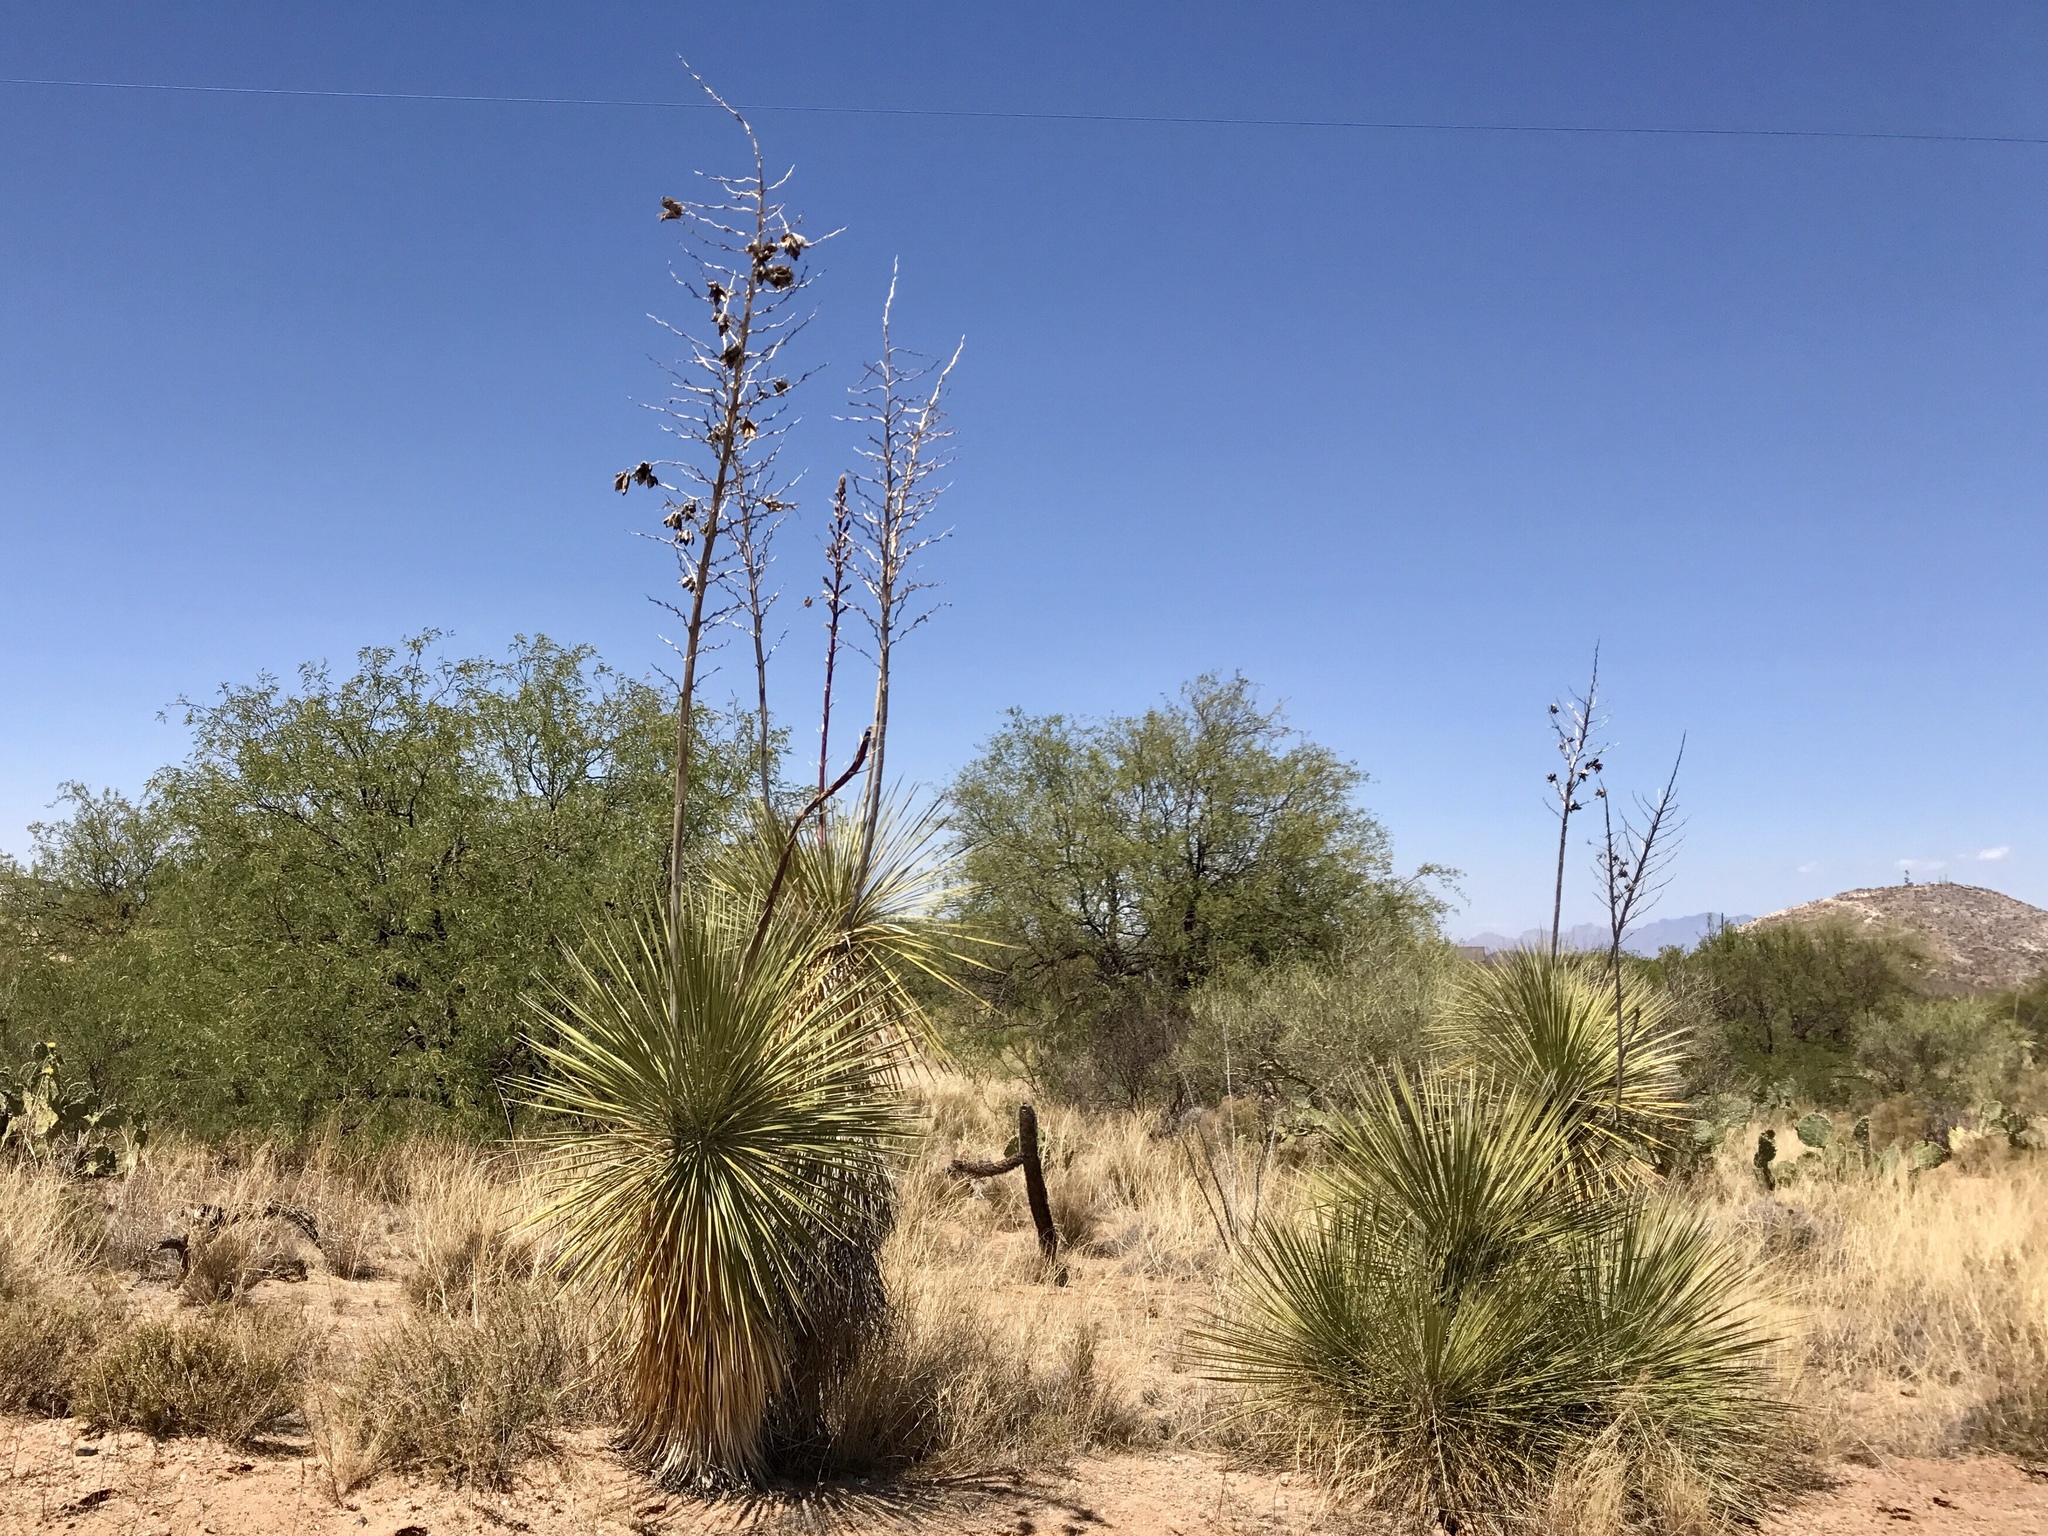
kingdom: Plantae
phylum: Tracheophyta
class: Liliopsida
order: Asparagales
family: Asparagaceae
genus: Yucca
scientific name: Yucca elata
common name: Palmella
